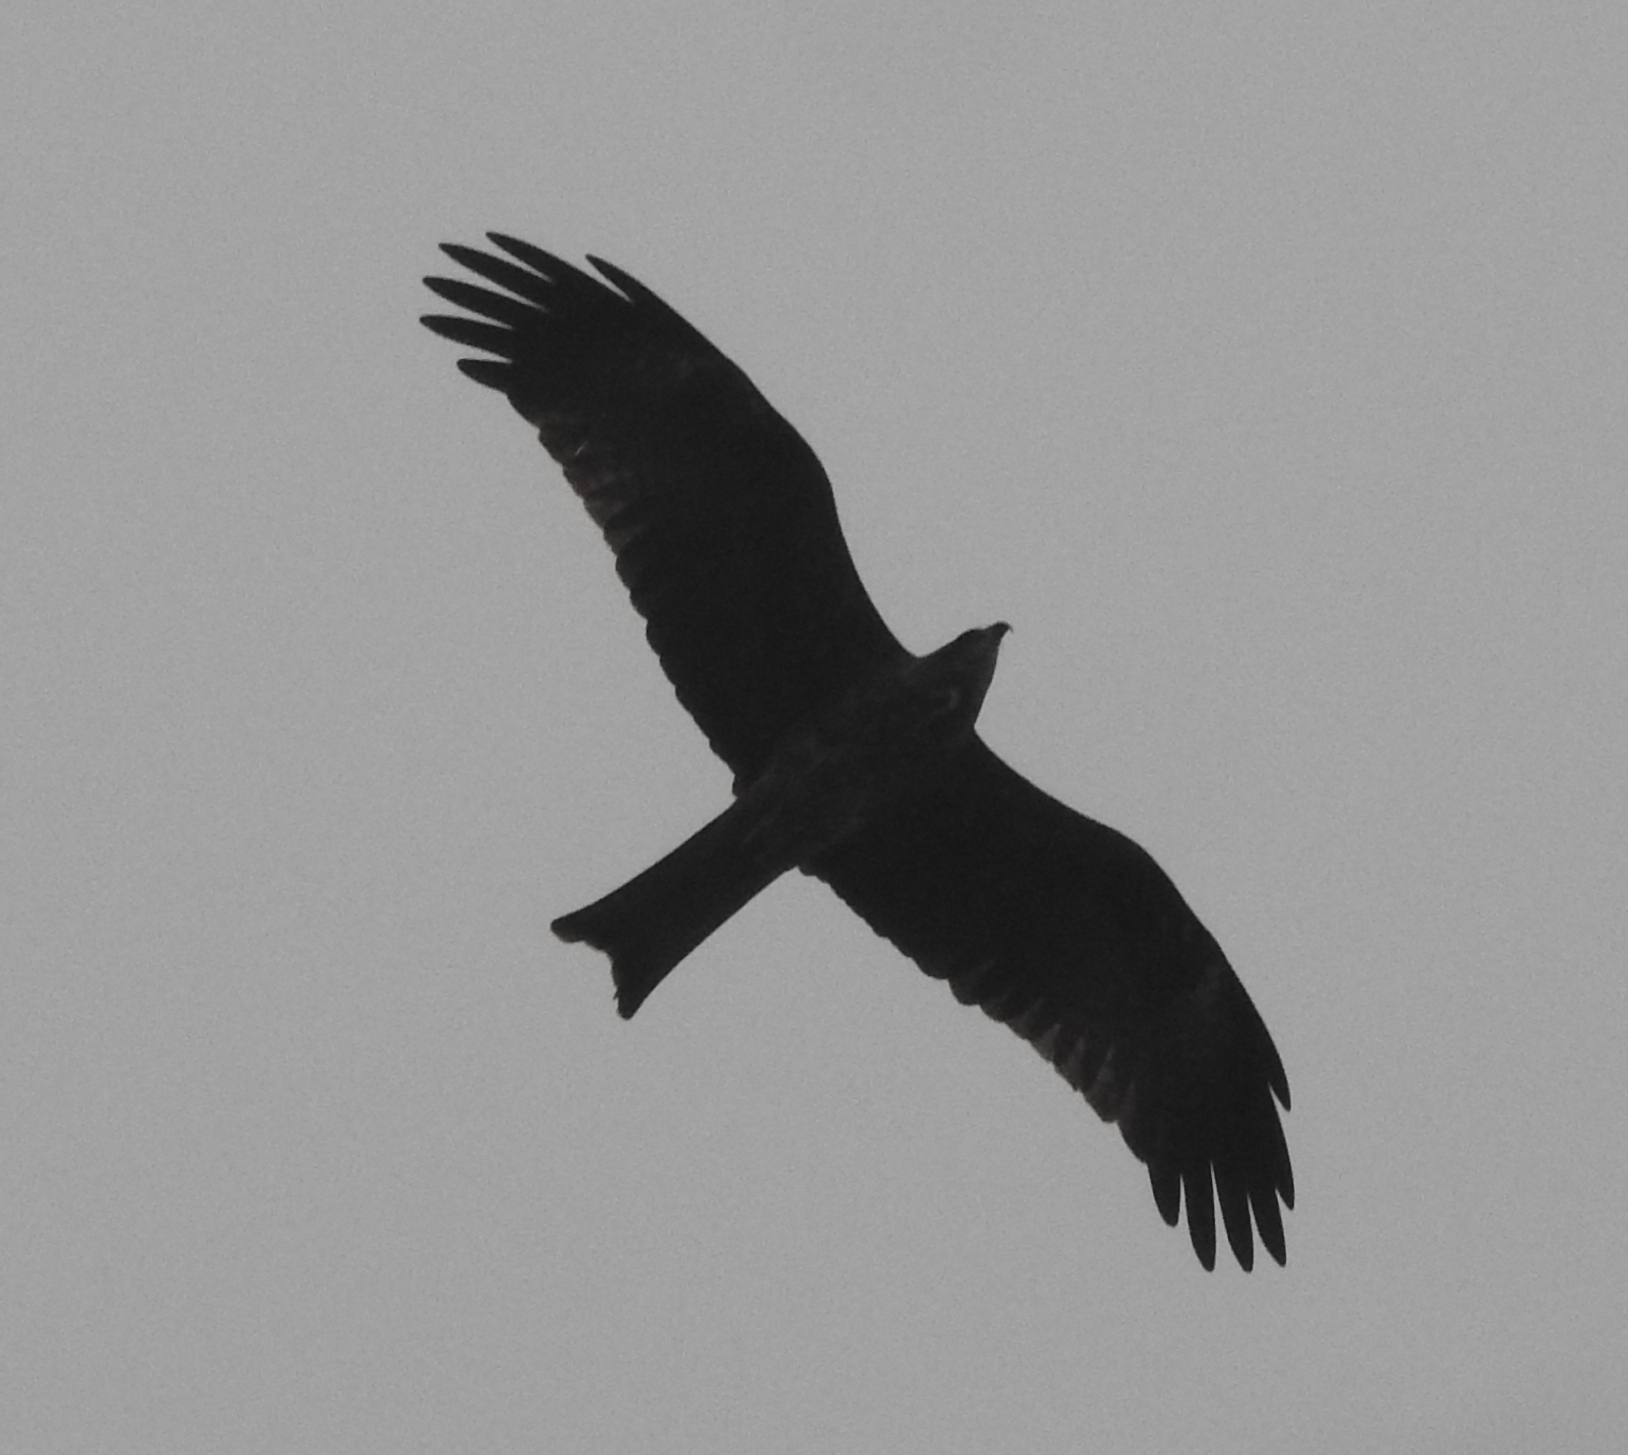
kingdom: Animalia
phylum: Chordata
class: Aves
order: Accipitriformes
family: Accipitridae
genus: Milvus
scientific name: Milvus migrans
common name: Black kite
